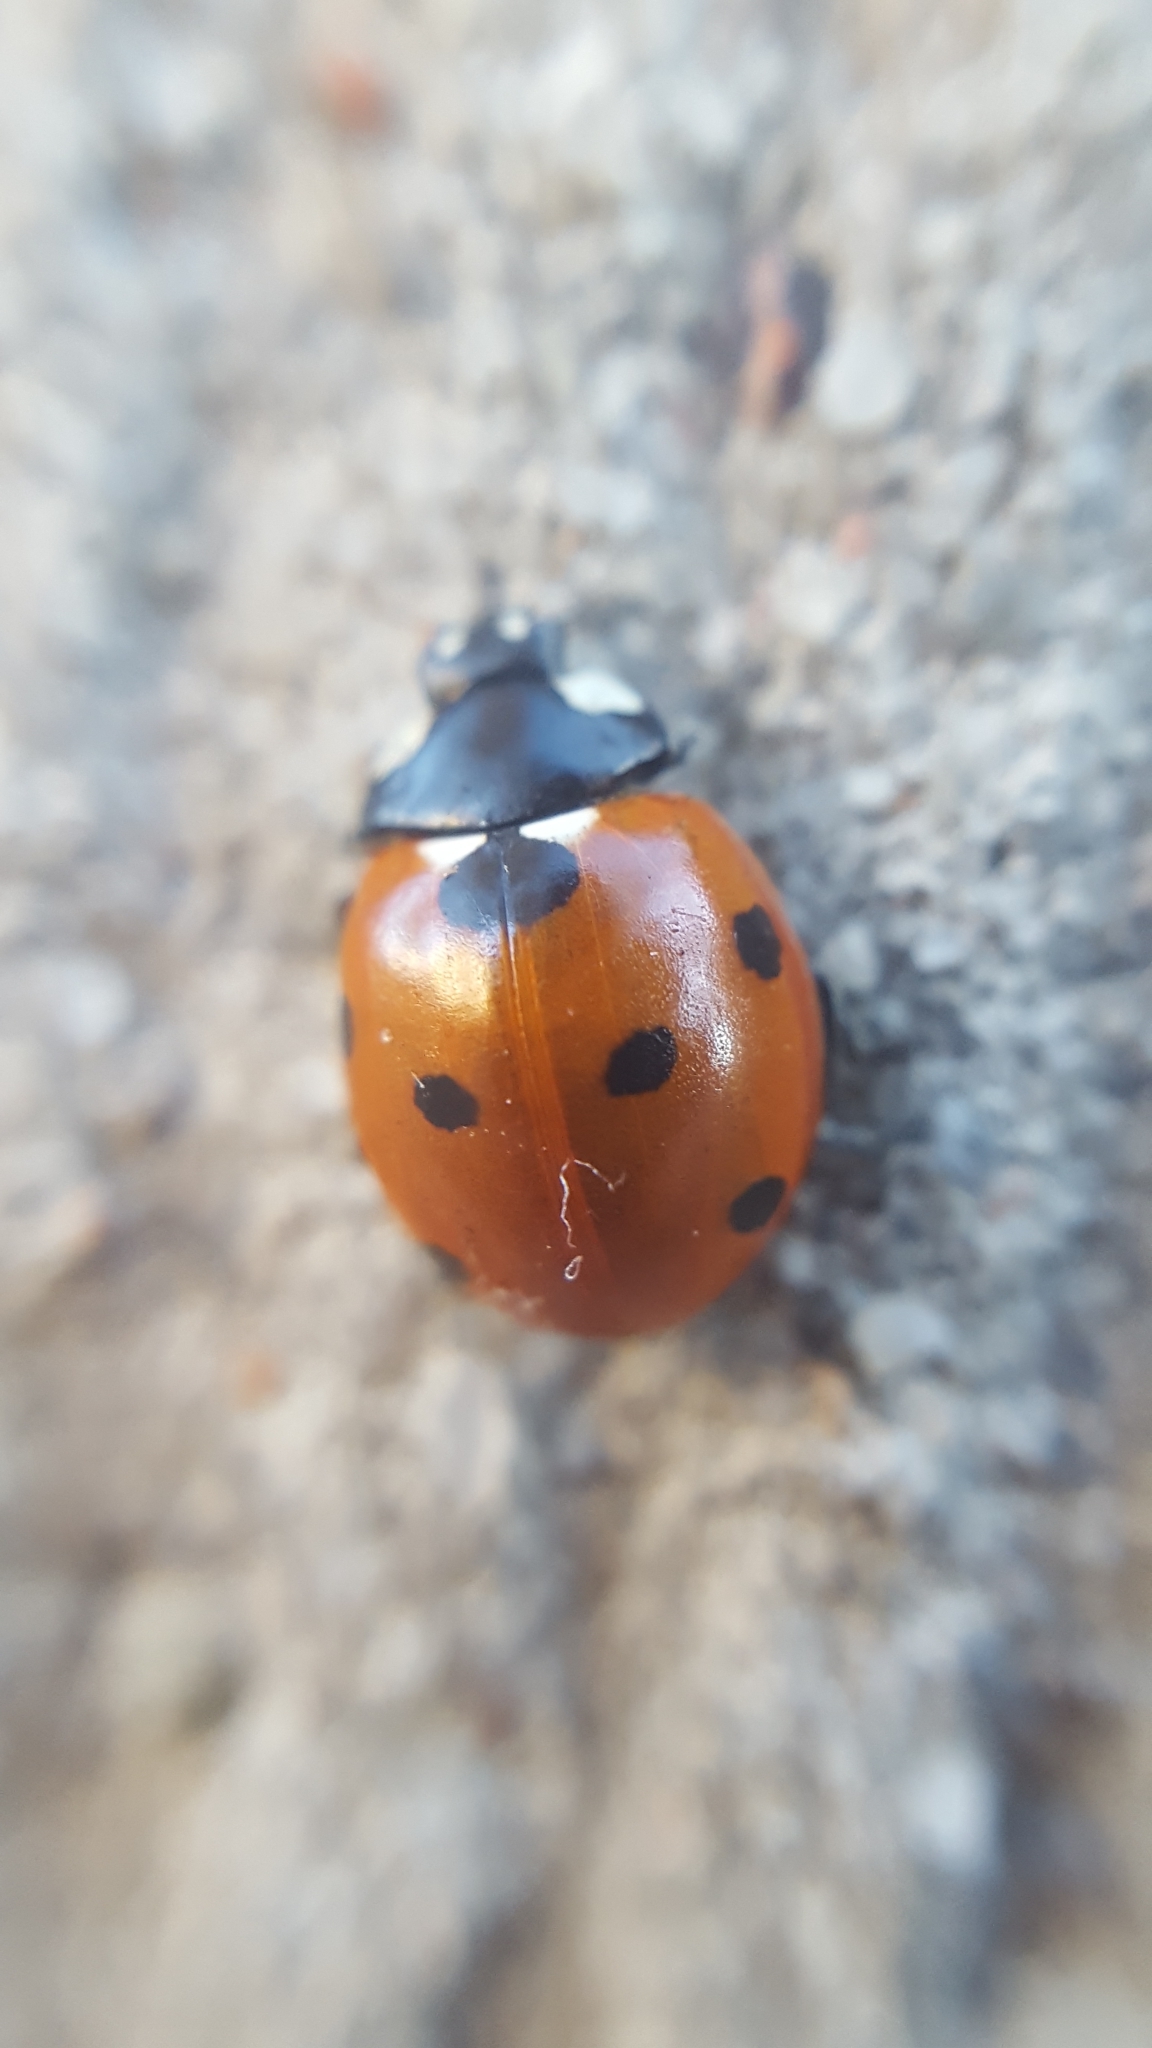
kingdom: Animalia
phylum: Arthropoda
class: Insecta
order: Coleoptera
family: Coccinellidae
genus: Coccinella
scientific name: Coccinella septempunctata
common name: Sevenspotted lady beetle
